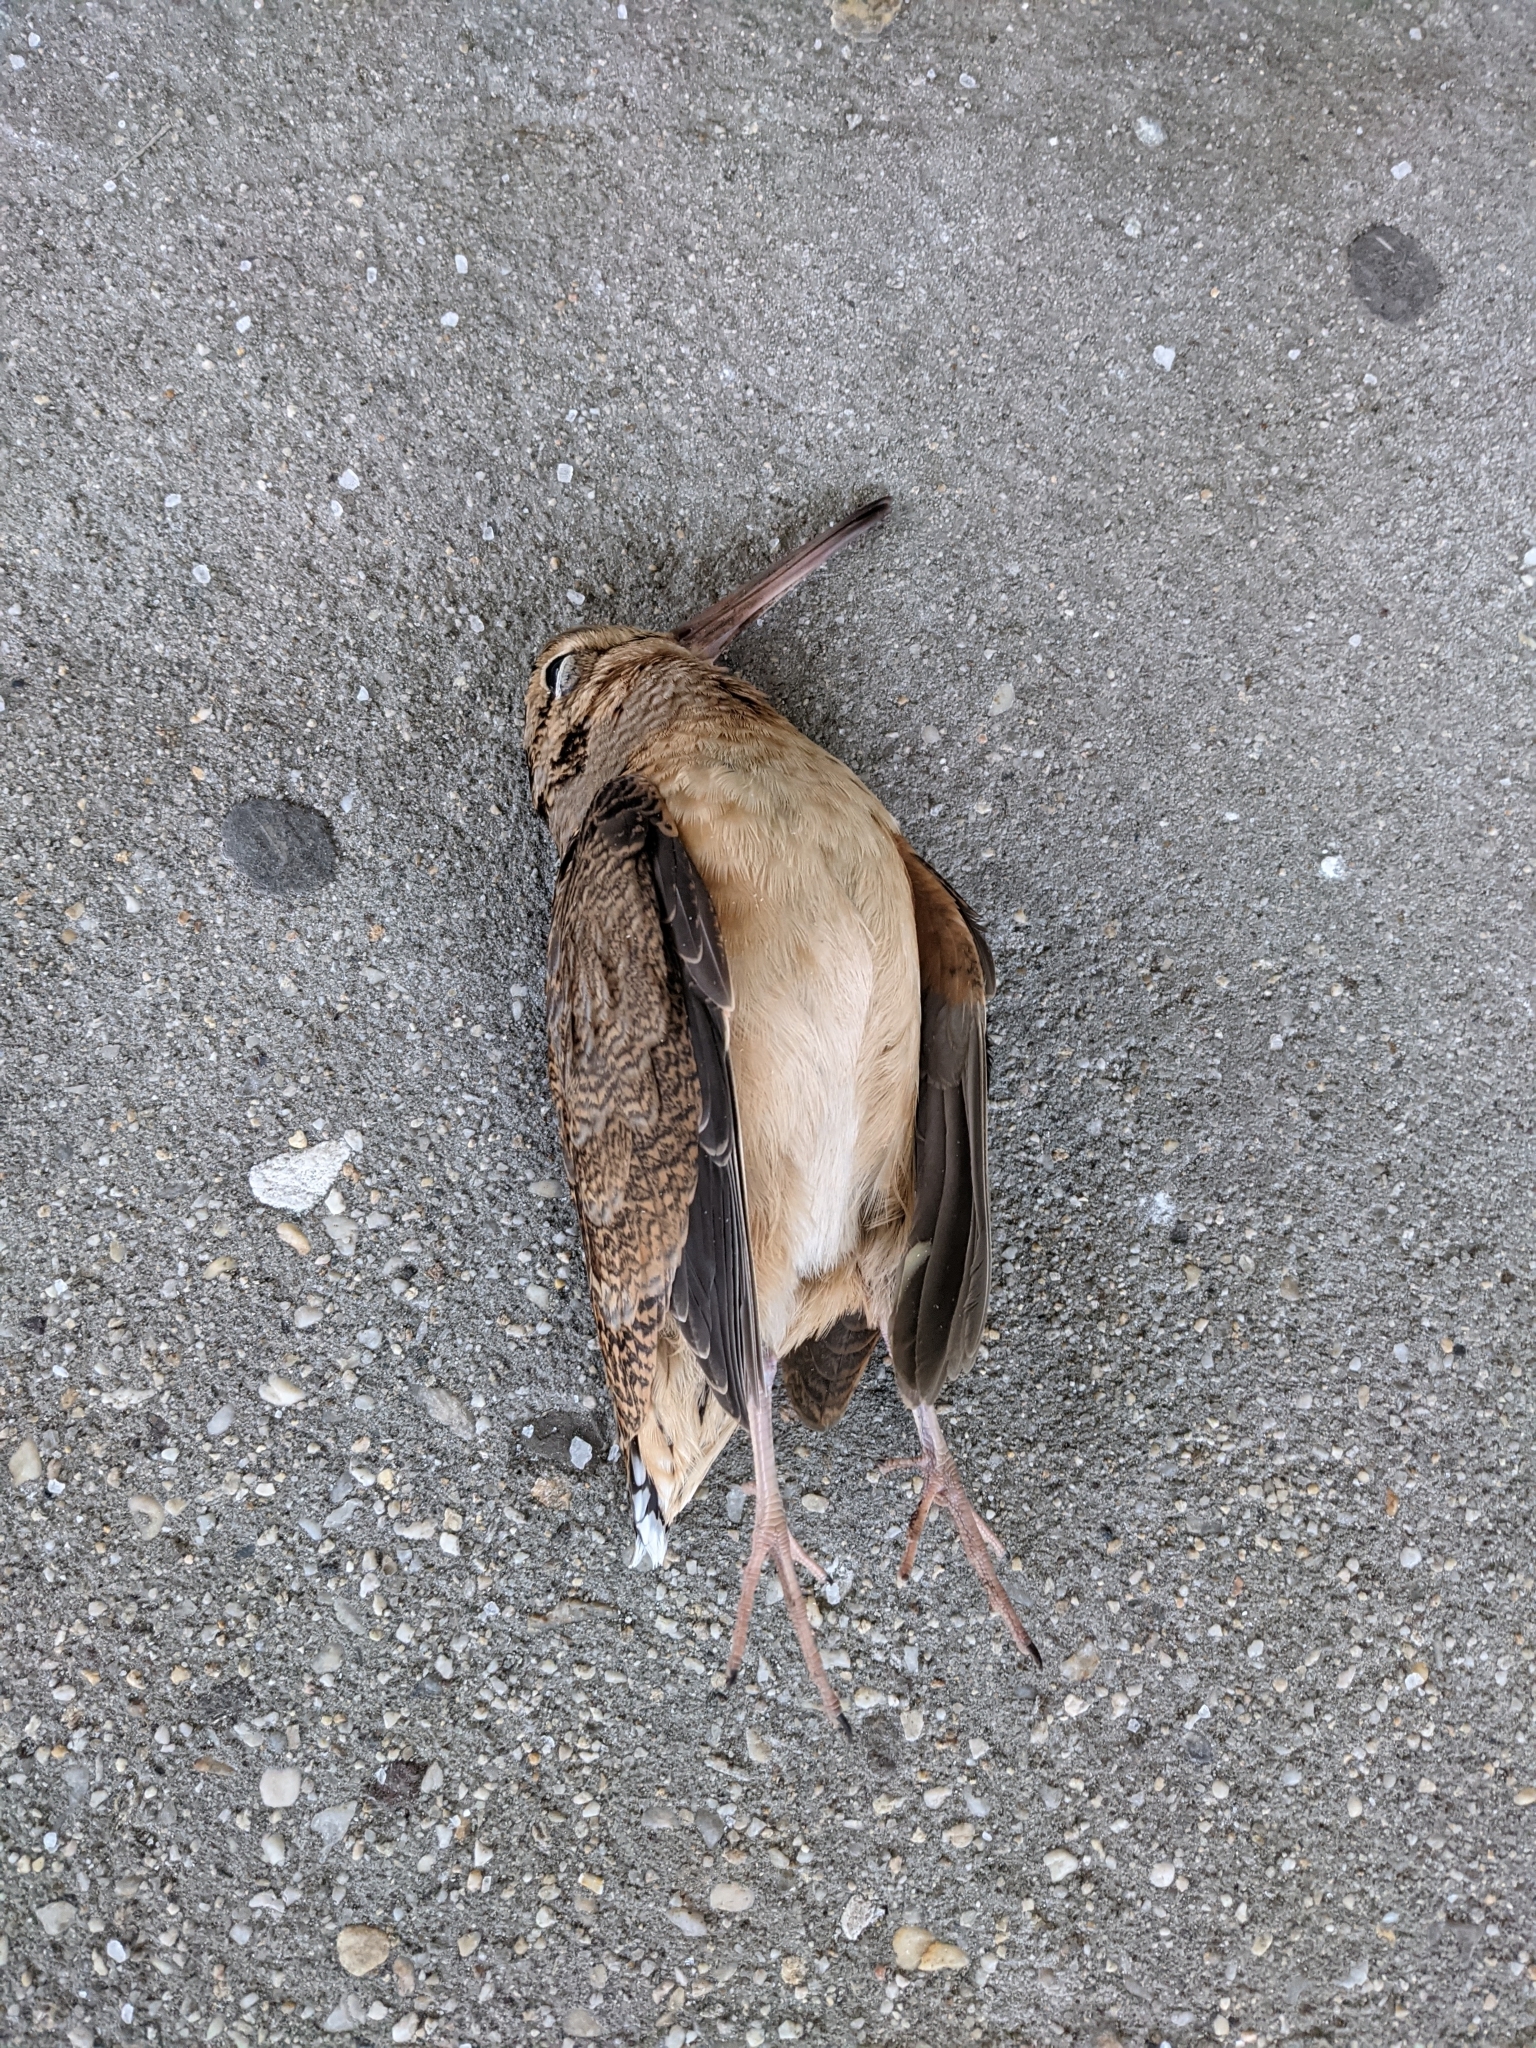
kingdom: Animalia
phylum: Chordata
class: Aves
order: Charadriiformes
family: Scolopacidae
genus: Scolopax
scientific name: Scolopax minor
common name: American woodcock
